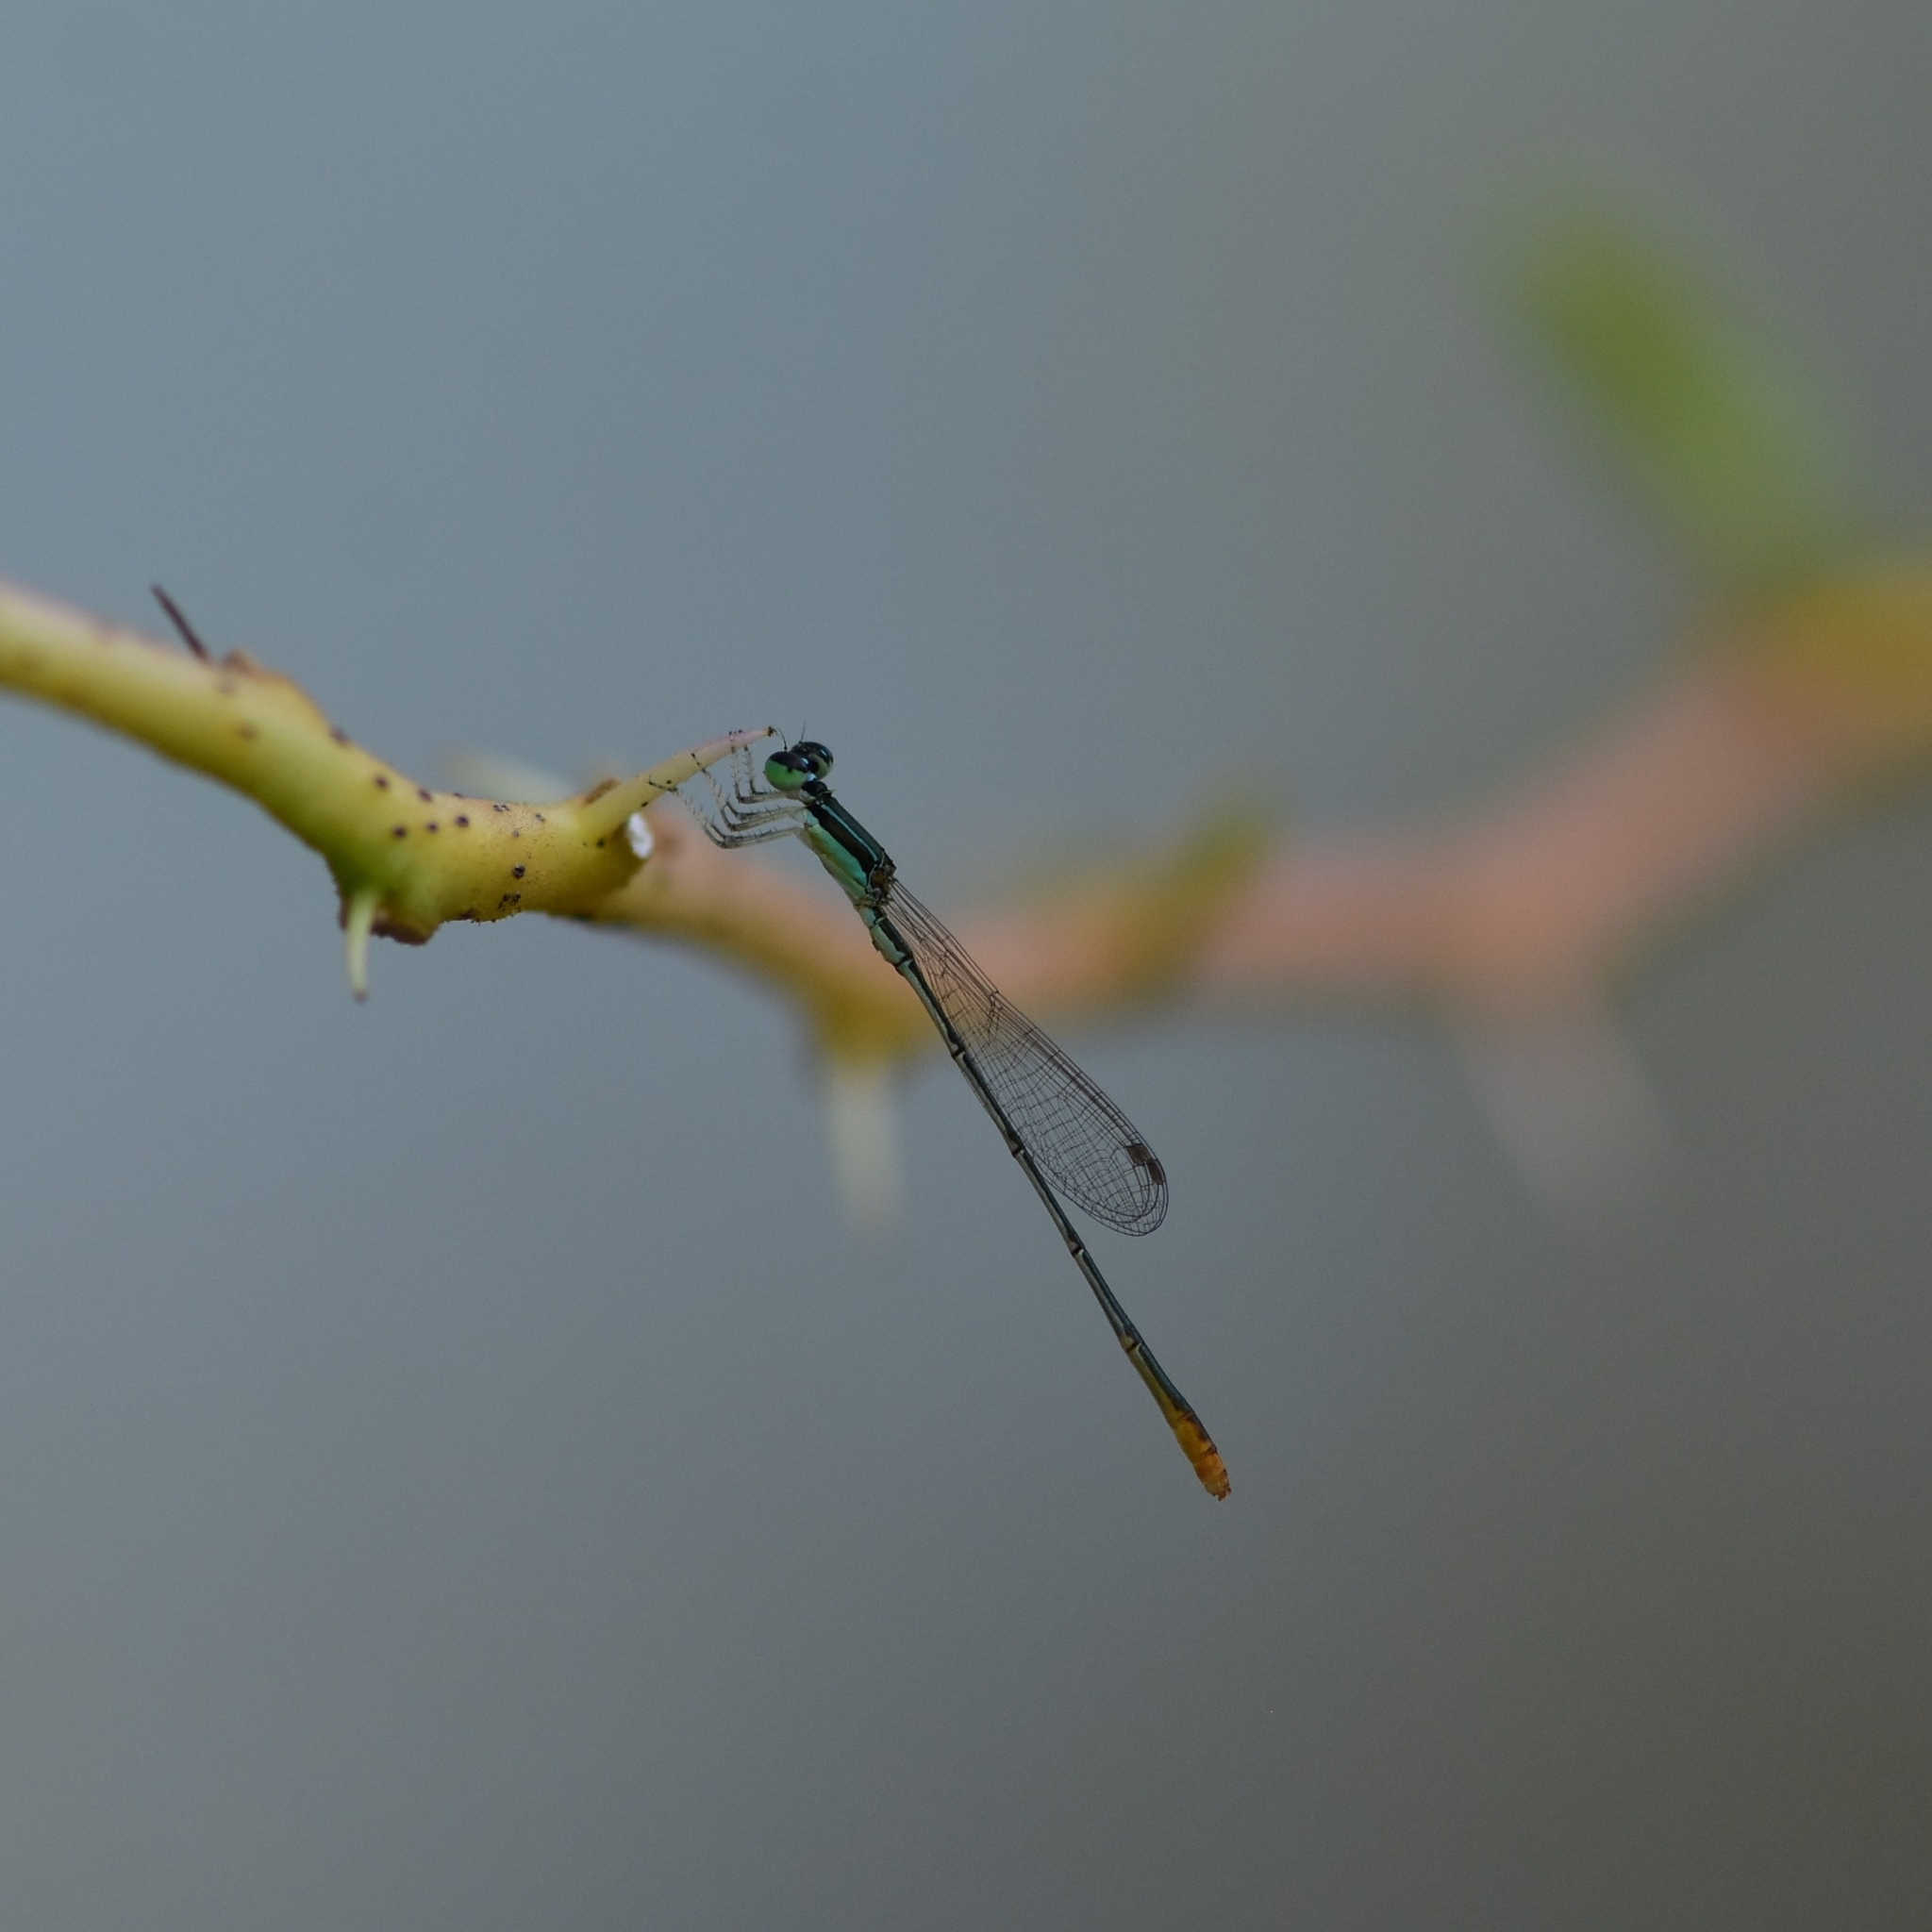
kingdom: Animalia
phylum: Arthropoda
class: Insecta
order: Odonata
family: Coenagrionidae
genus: Agriocnemis
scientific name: Agriocnemis pygmaea
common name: Pygmy wisp
